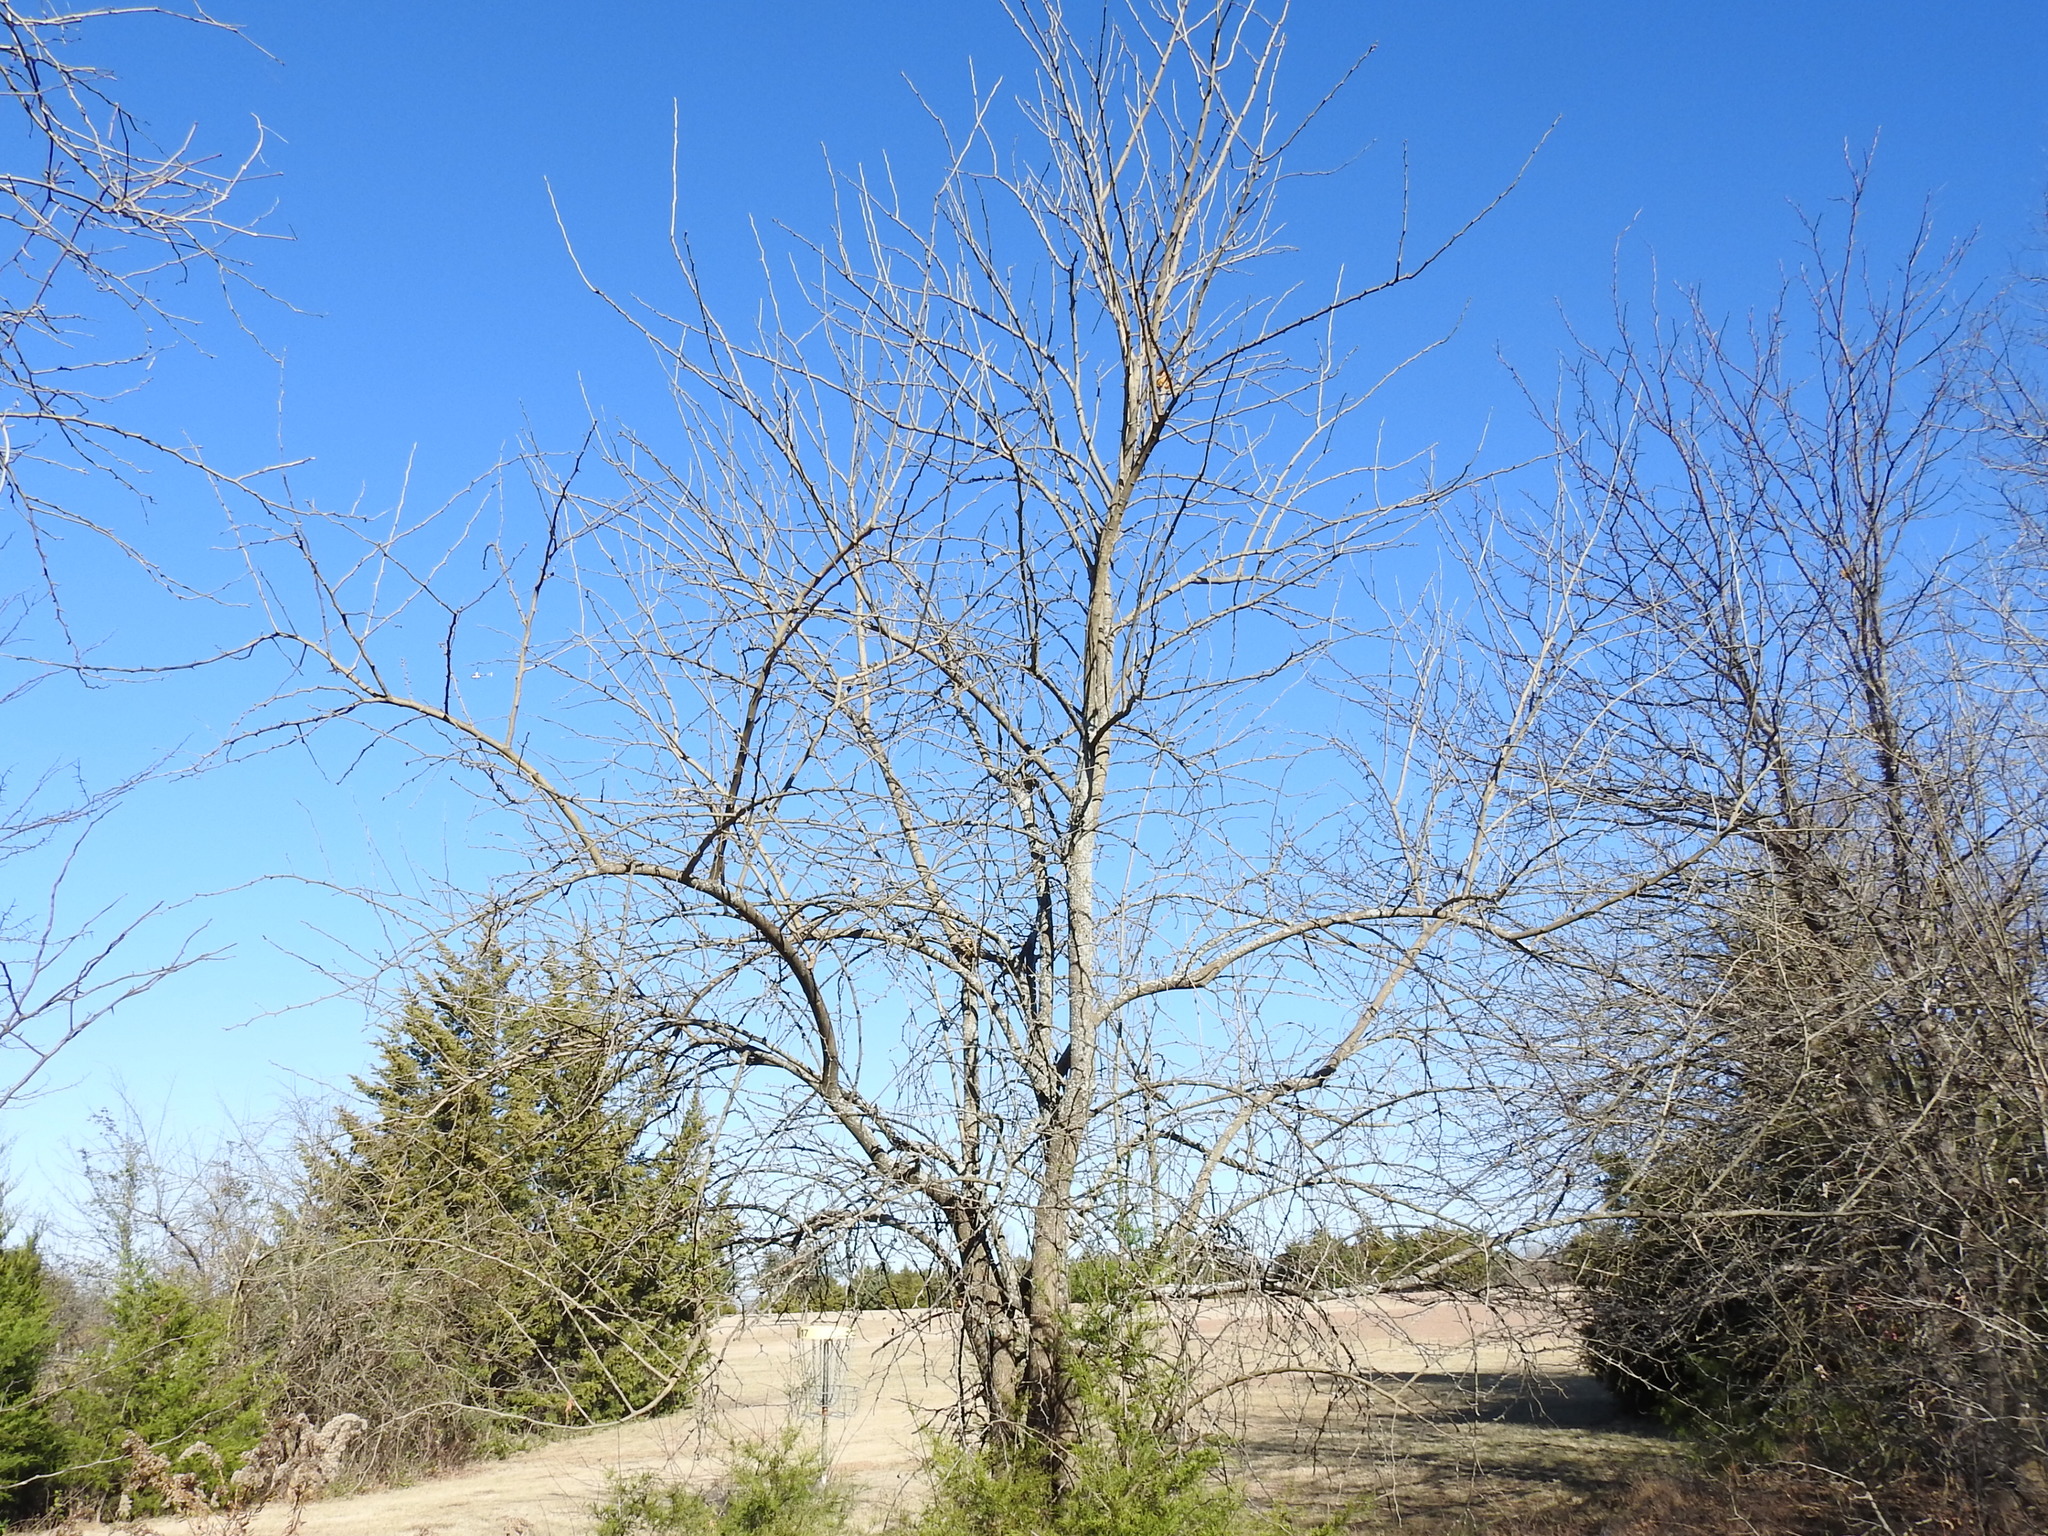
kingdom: Plantae
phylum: Tracheophyta
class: Magnoliopsida
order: Rosales
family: Moraceae
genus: Maclura
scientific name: Maclura pomifera
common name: Osage-orange
